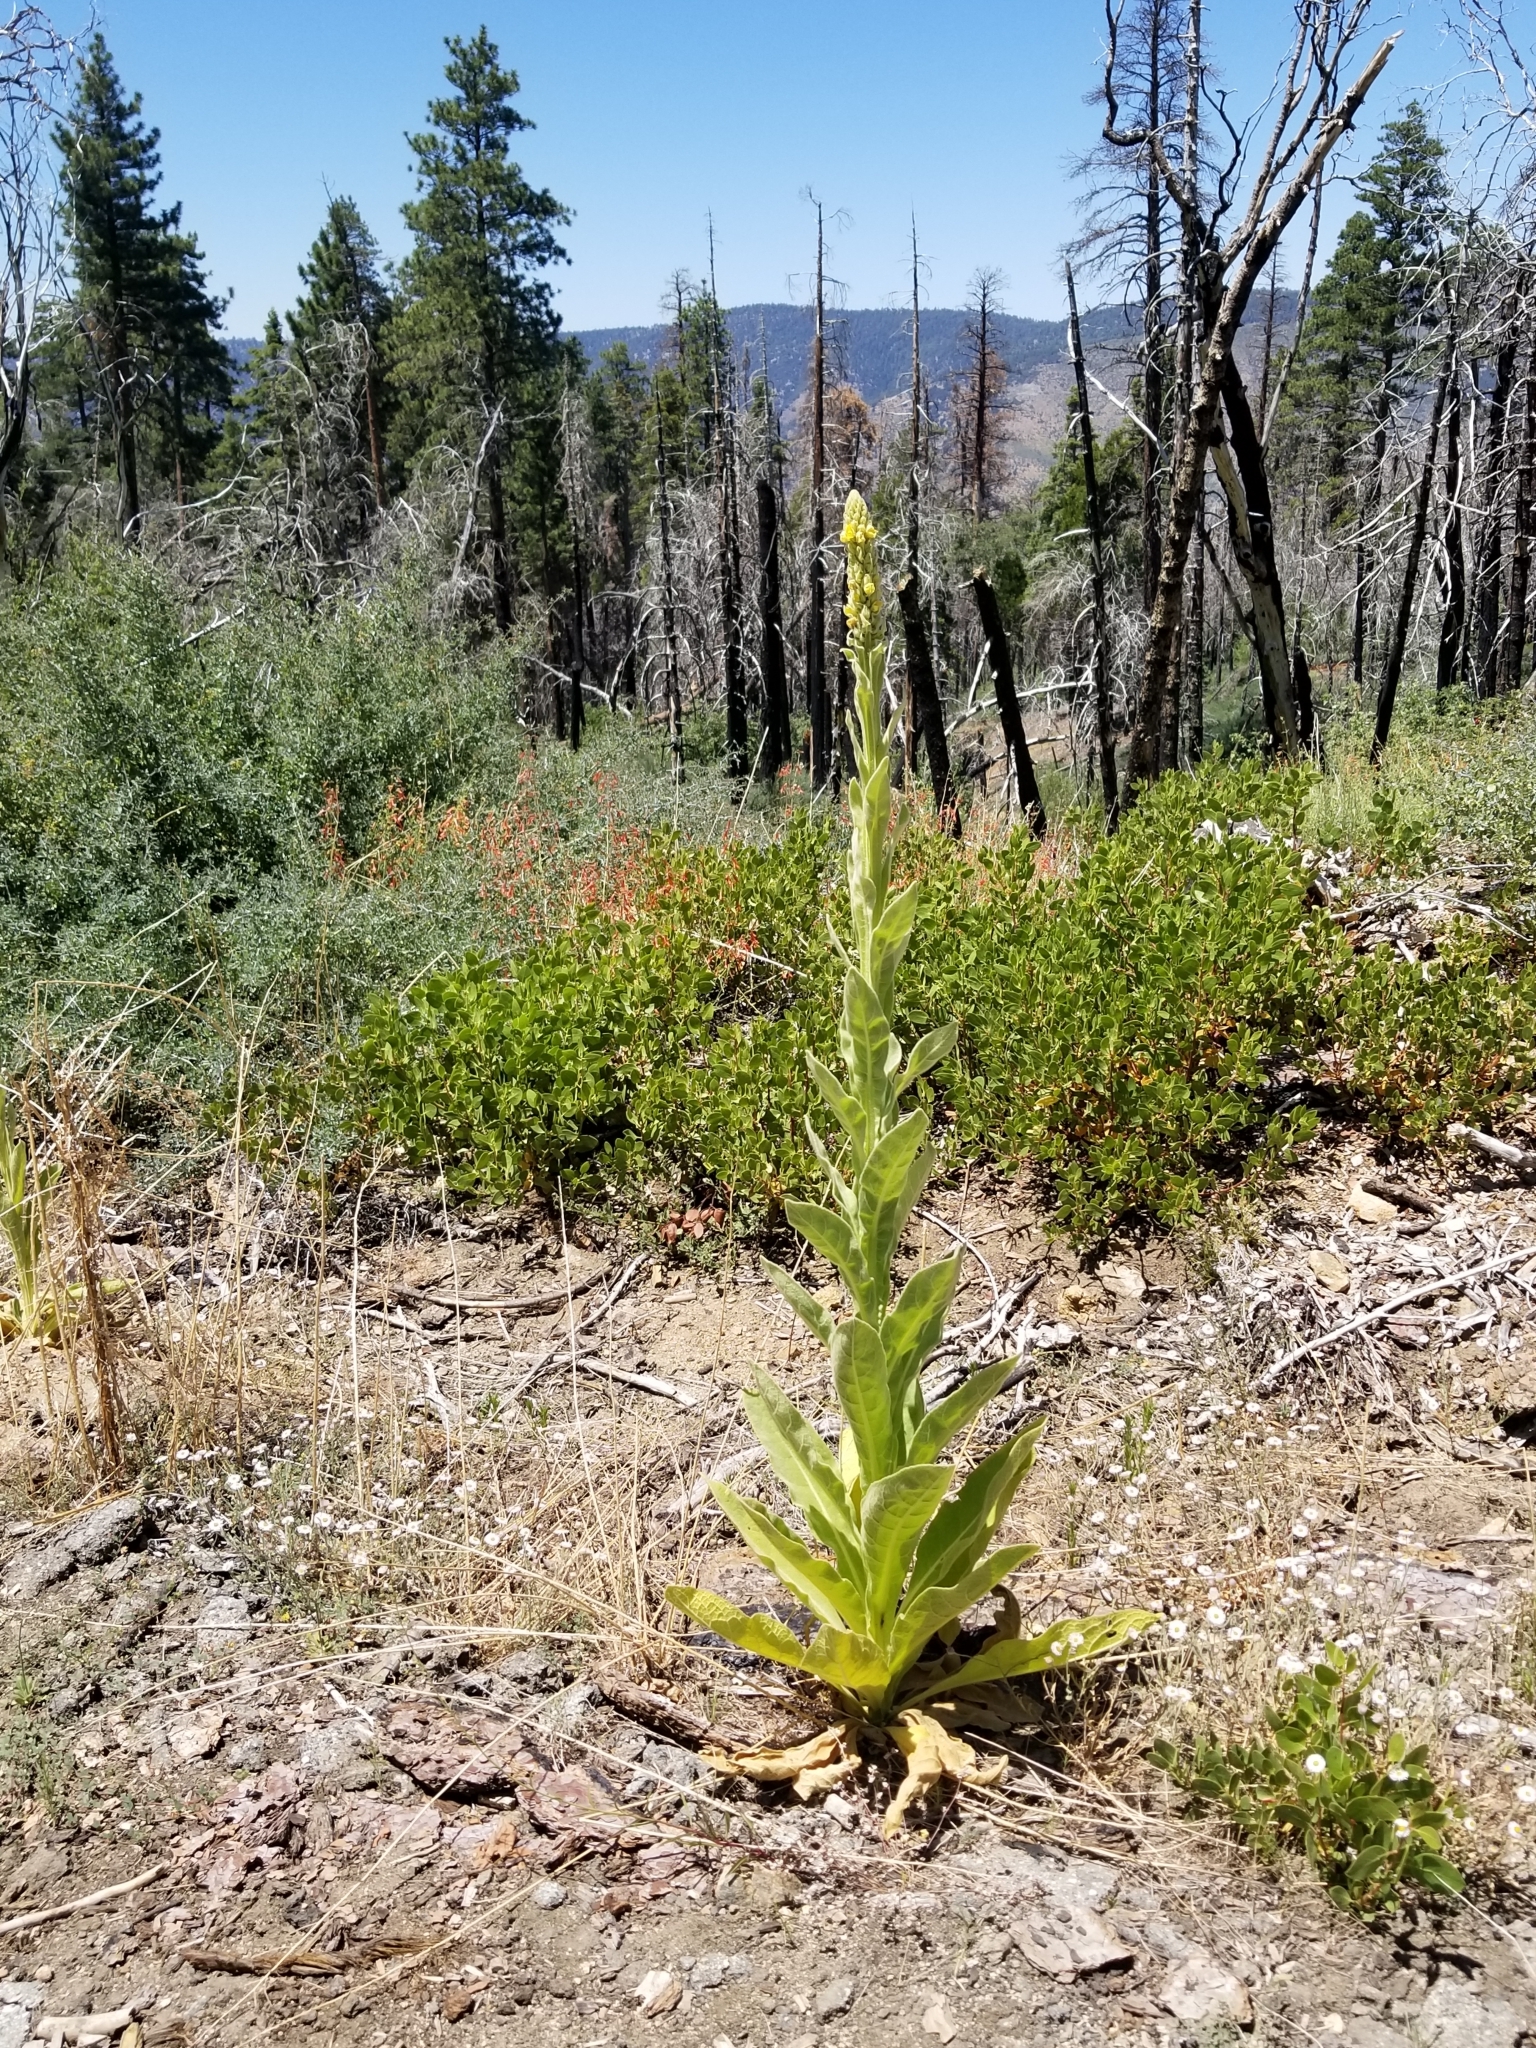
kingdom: Plantae
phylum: Tracheophyta
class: Magnoliopsida
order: Lamiales
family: Scrophulariaceae
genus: Verbascum
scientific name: Verbascum thapsus
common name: Common mullein
